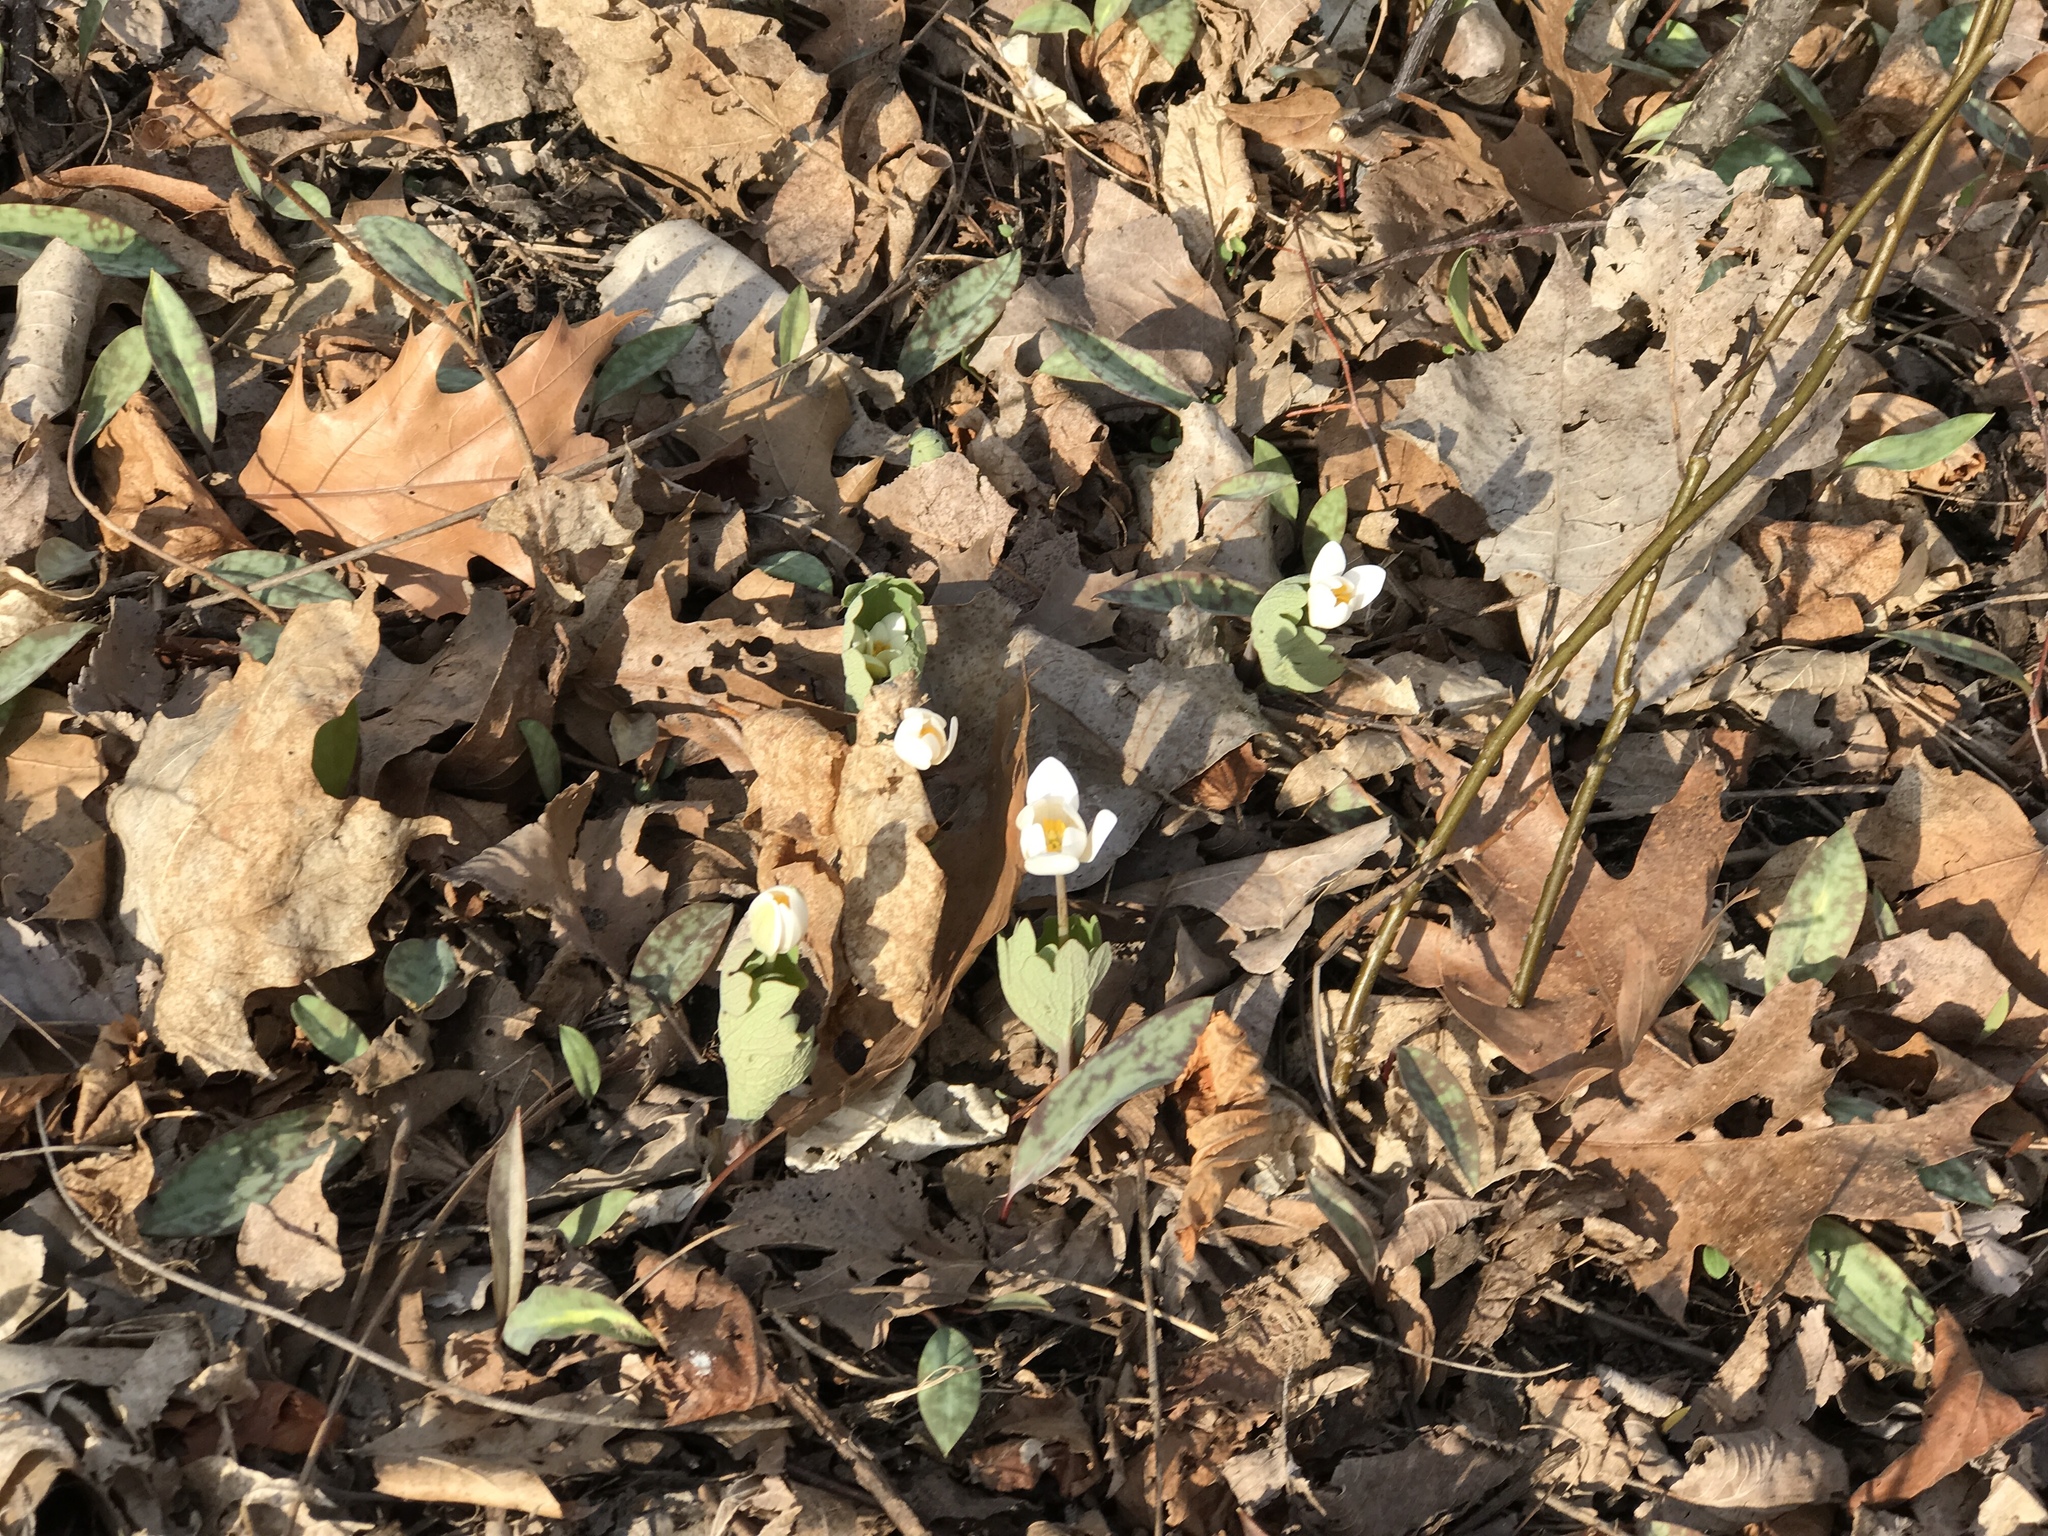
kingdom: Plantae
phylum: Tracheophyta
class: Magnoliopsida
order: Ranunculales
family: Papaveraceae
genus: Sanguinaria
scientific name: Sanguinaria canadensis
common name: Bloodroot
